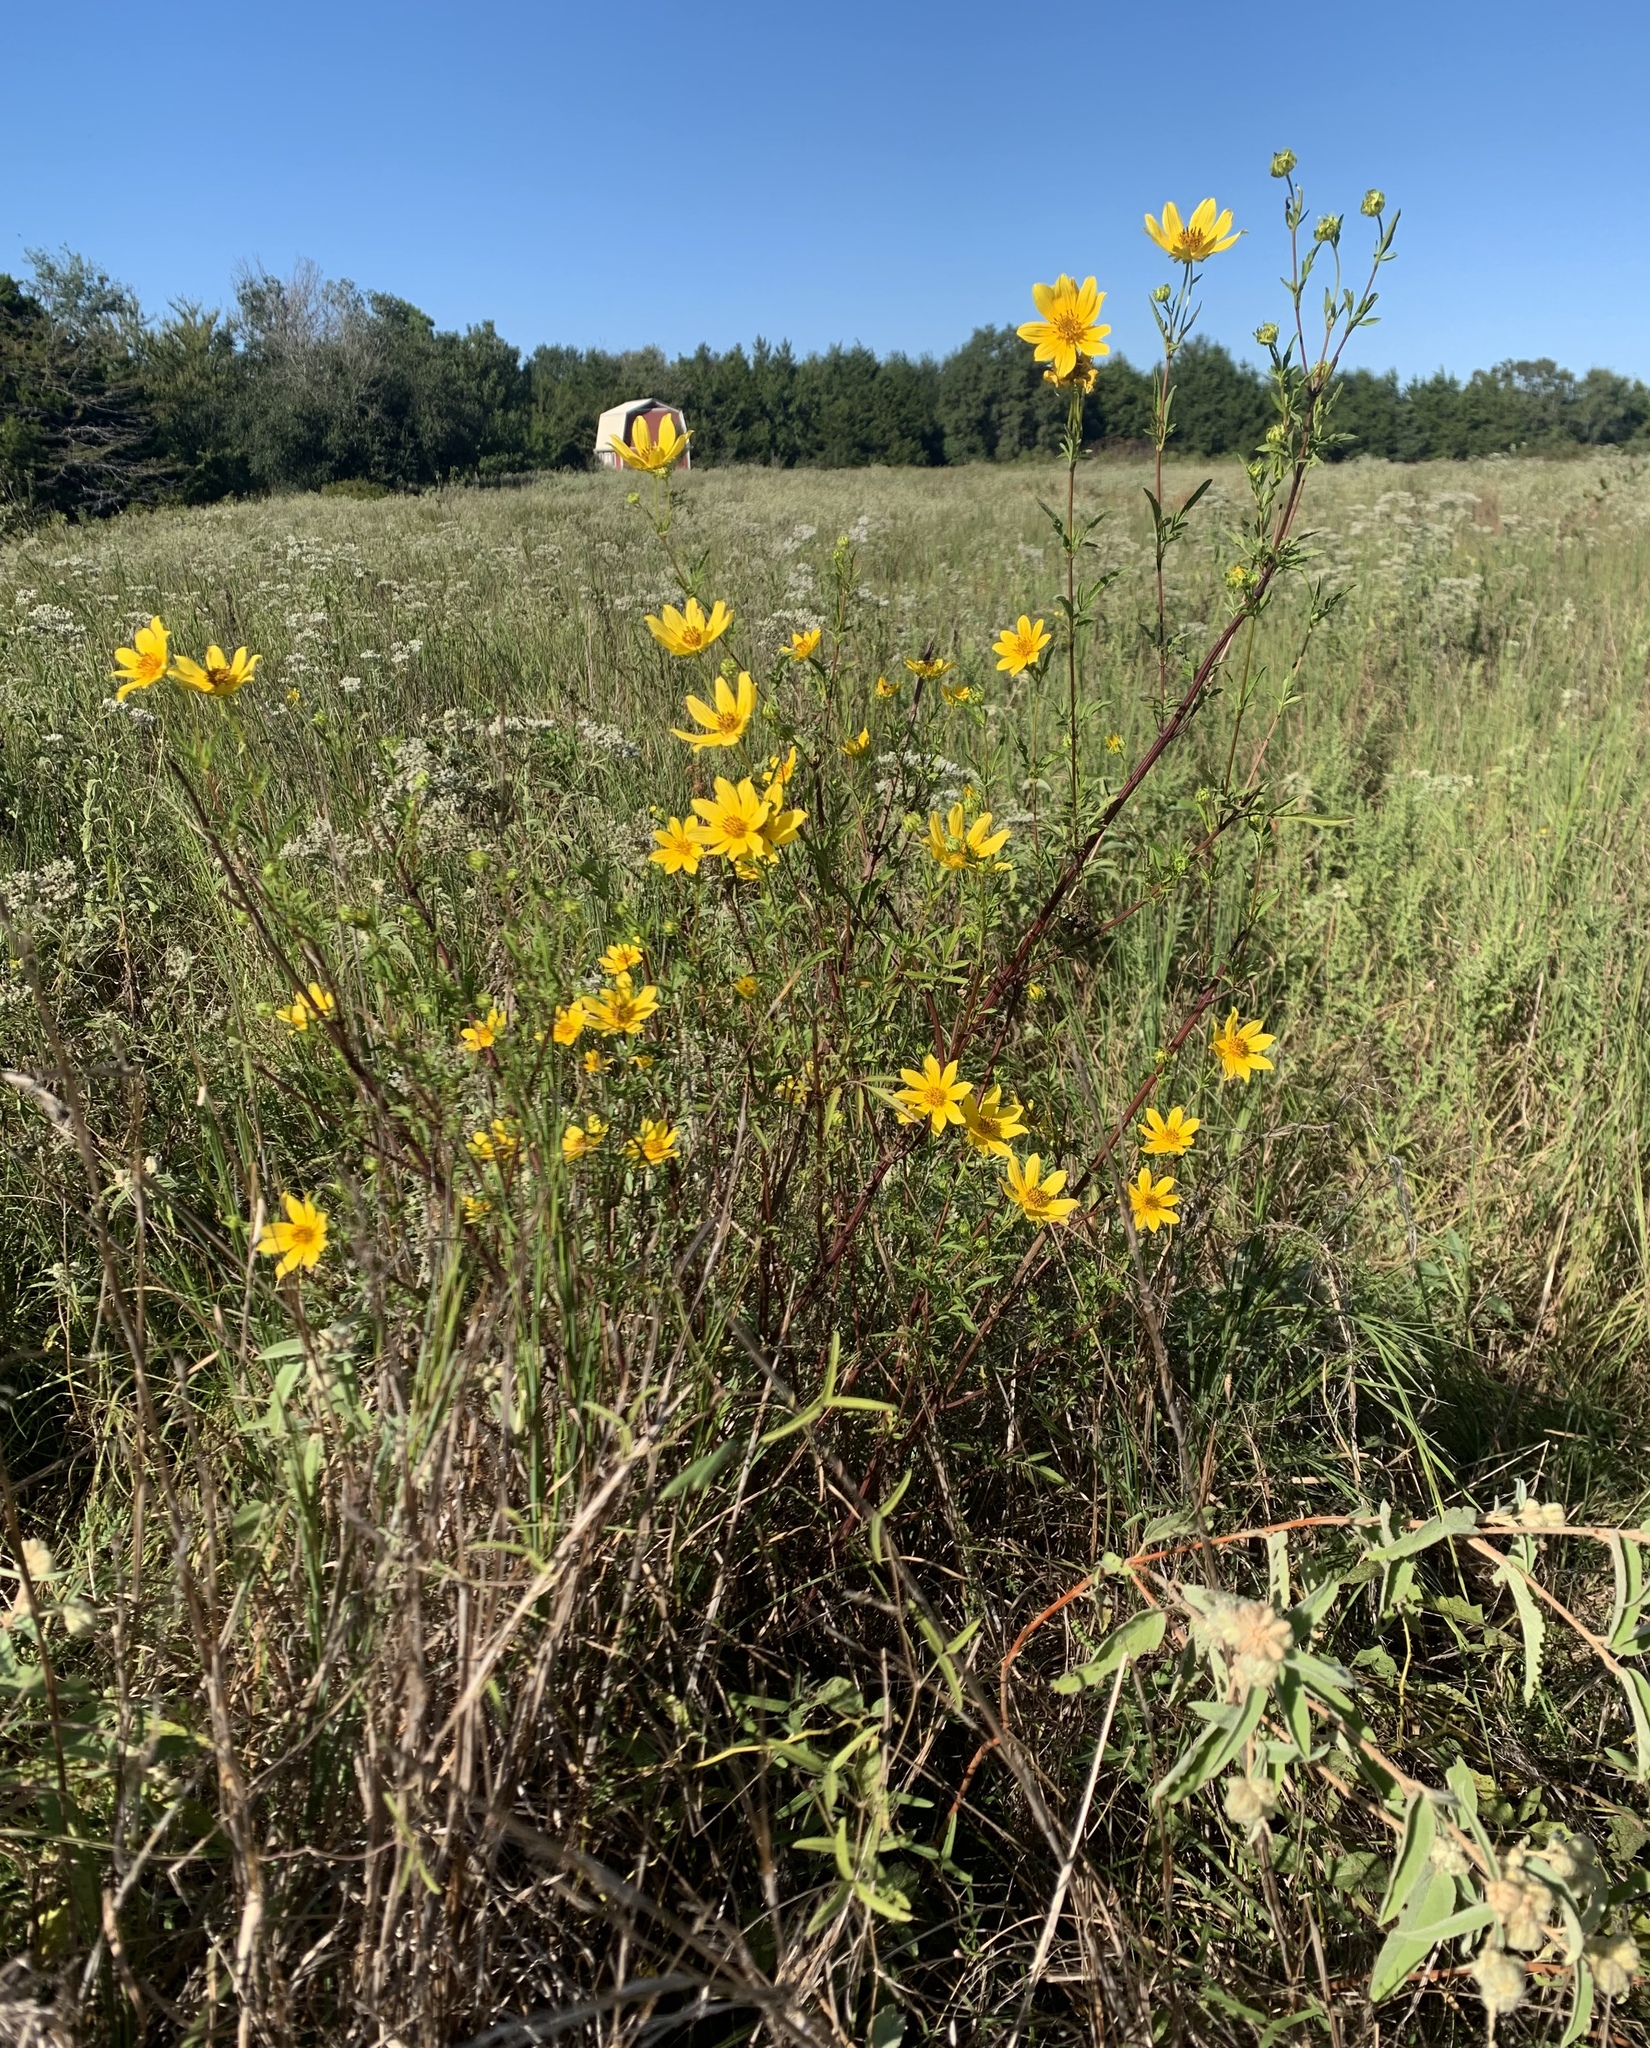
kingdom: Plantae
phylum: Tracheophyta
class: Magnoliopsida
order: Asterales
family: Asteraceae
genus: Bidens
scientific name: Bidens aristosa
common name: Western tickseed
